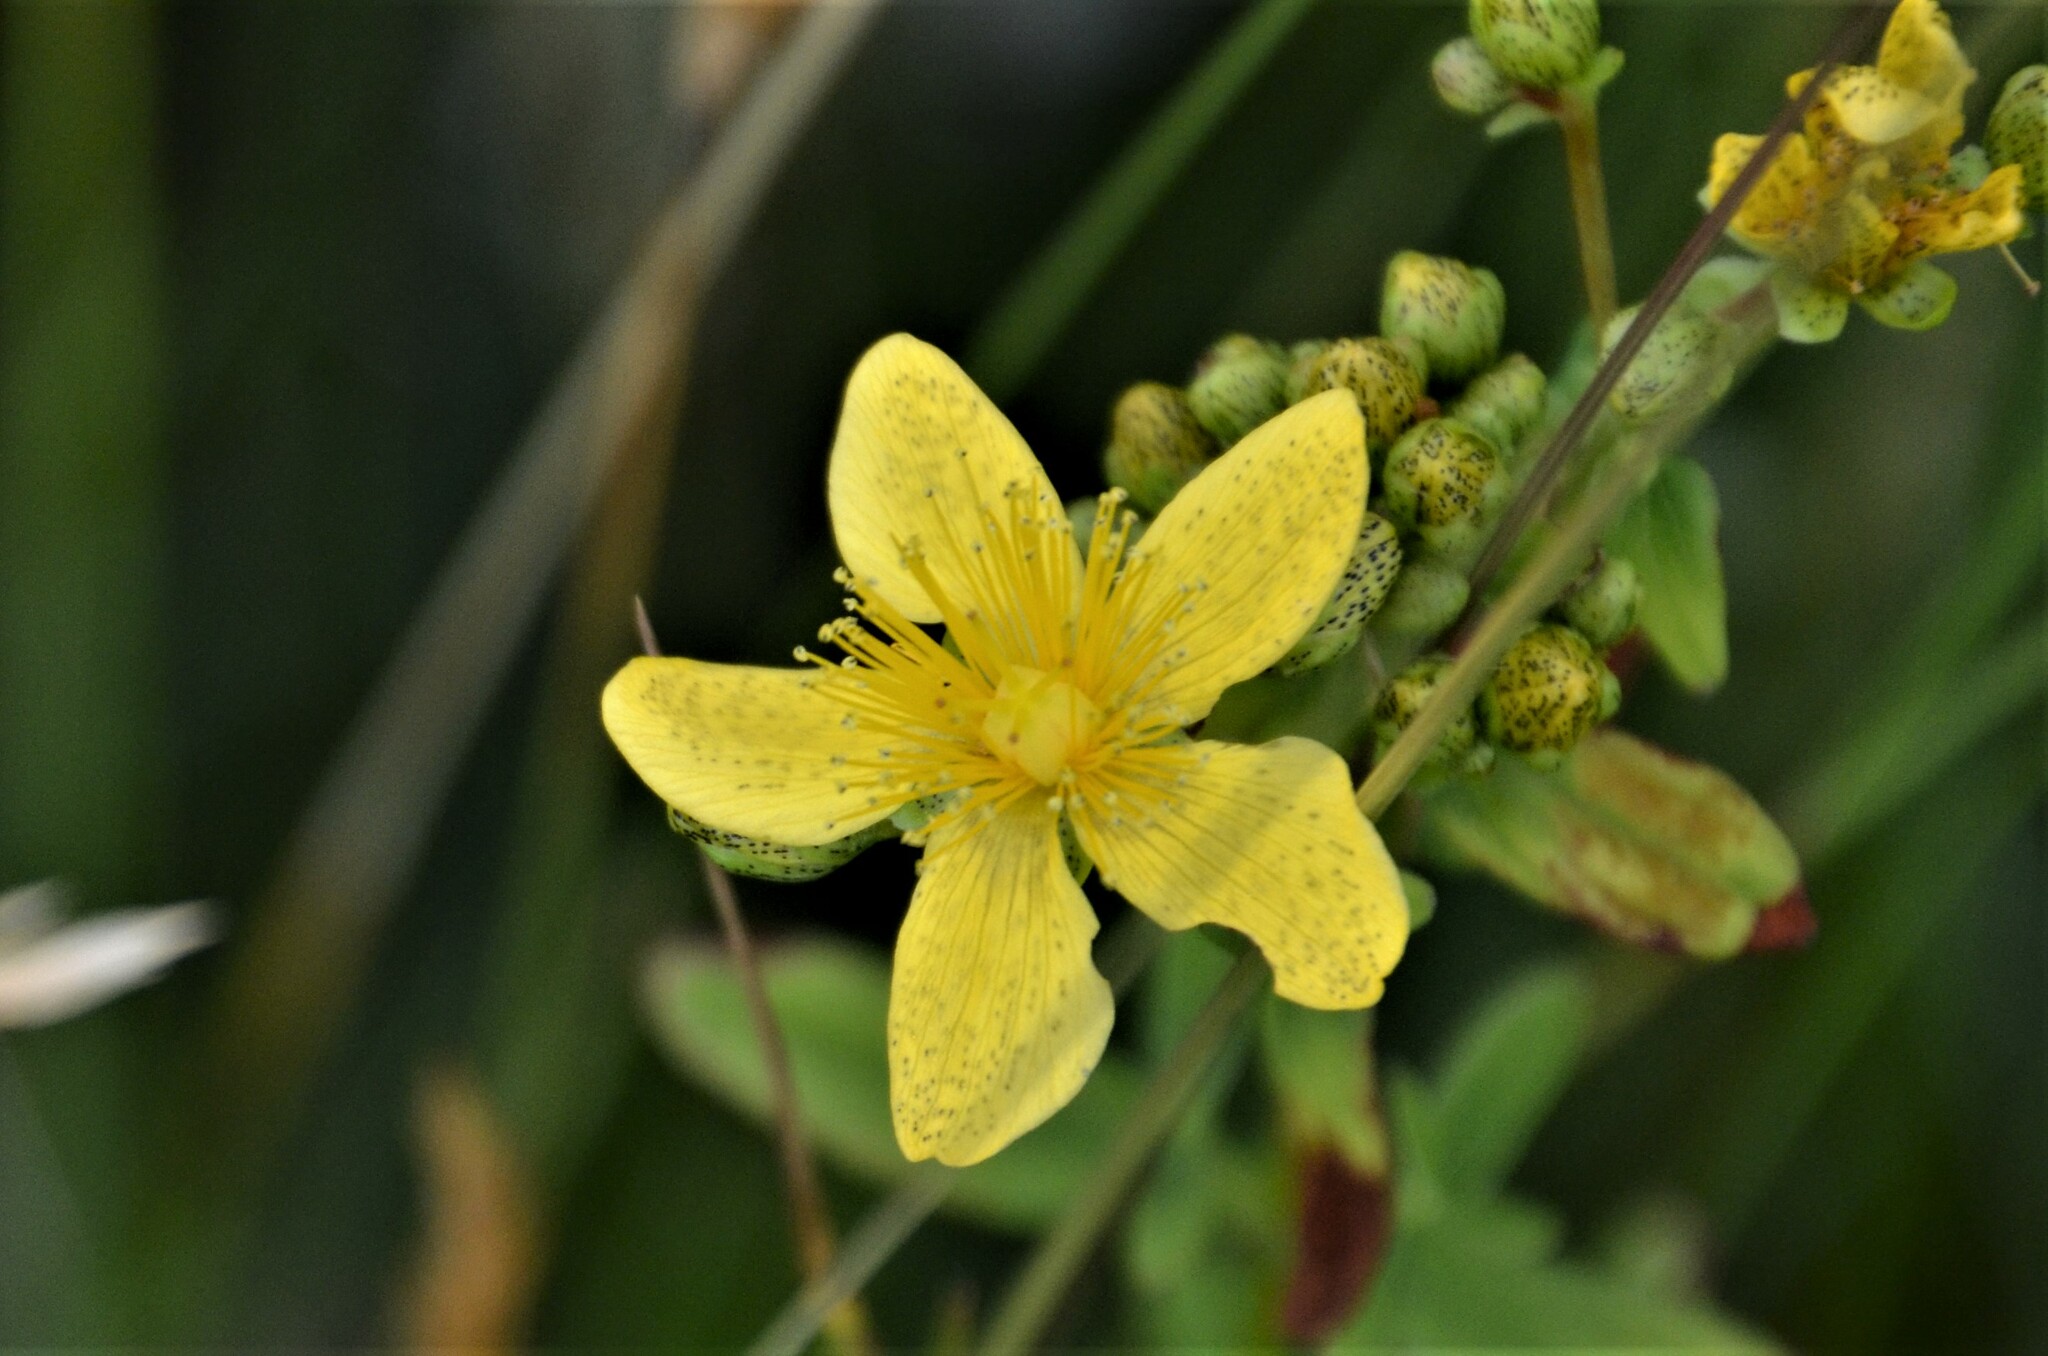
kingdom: Plantae
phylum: Tracheophyta
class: Magnoliopsida
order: Malpighiales
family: Hypericaceae
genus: Hypericum
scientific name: Hypericum maculatum
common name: Imperforate st. john's-wort
